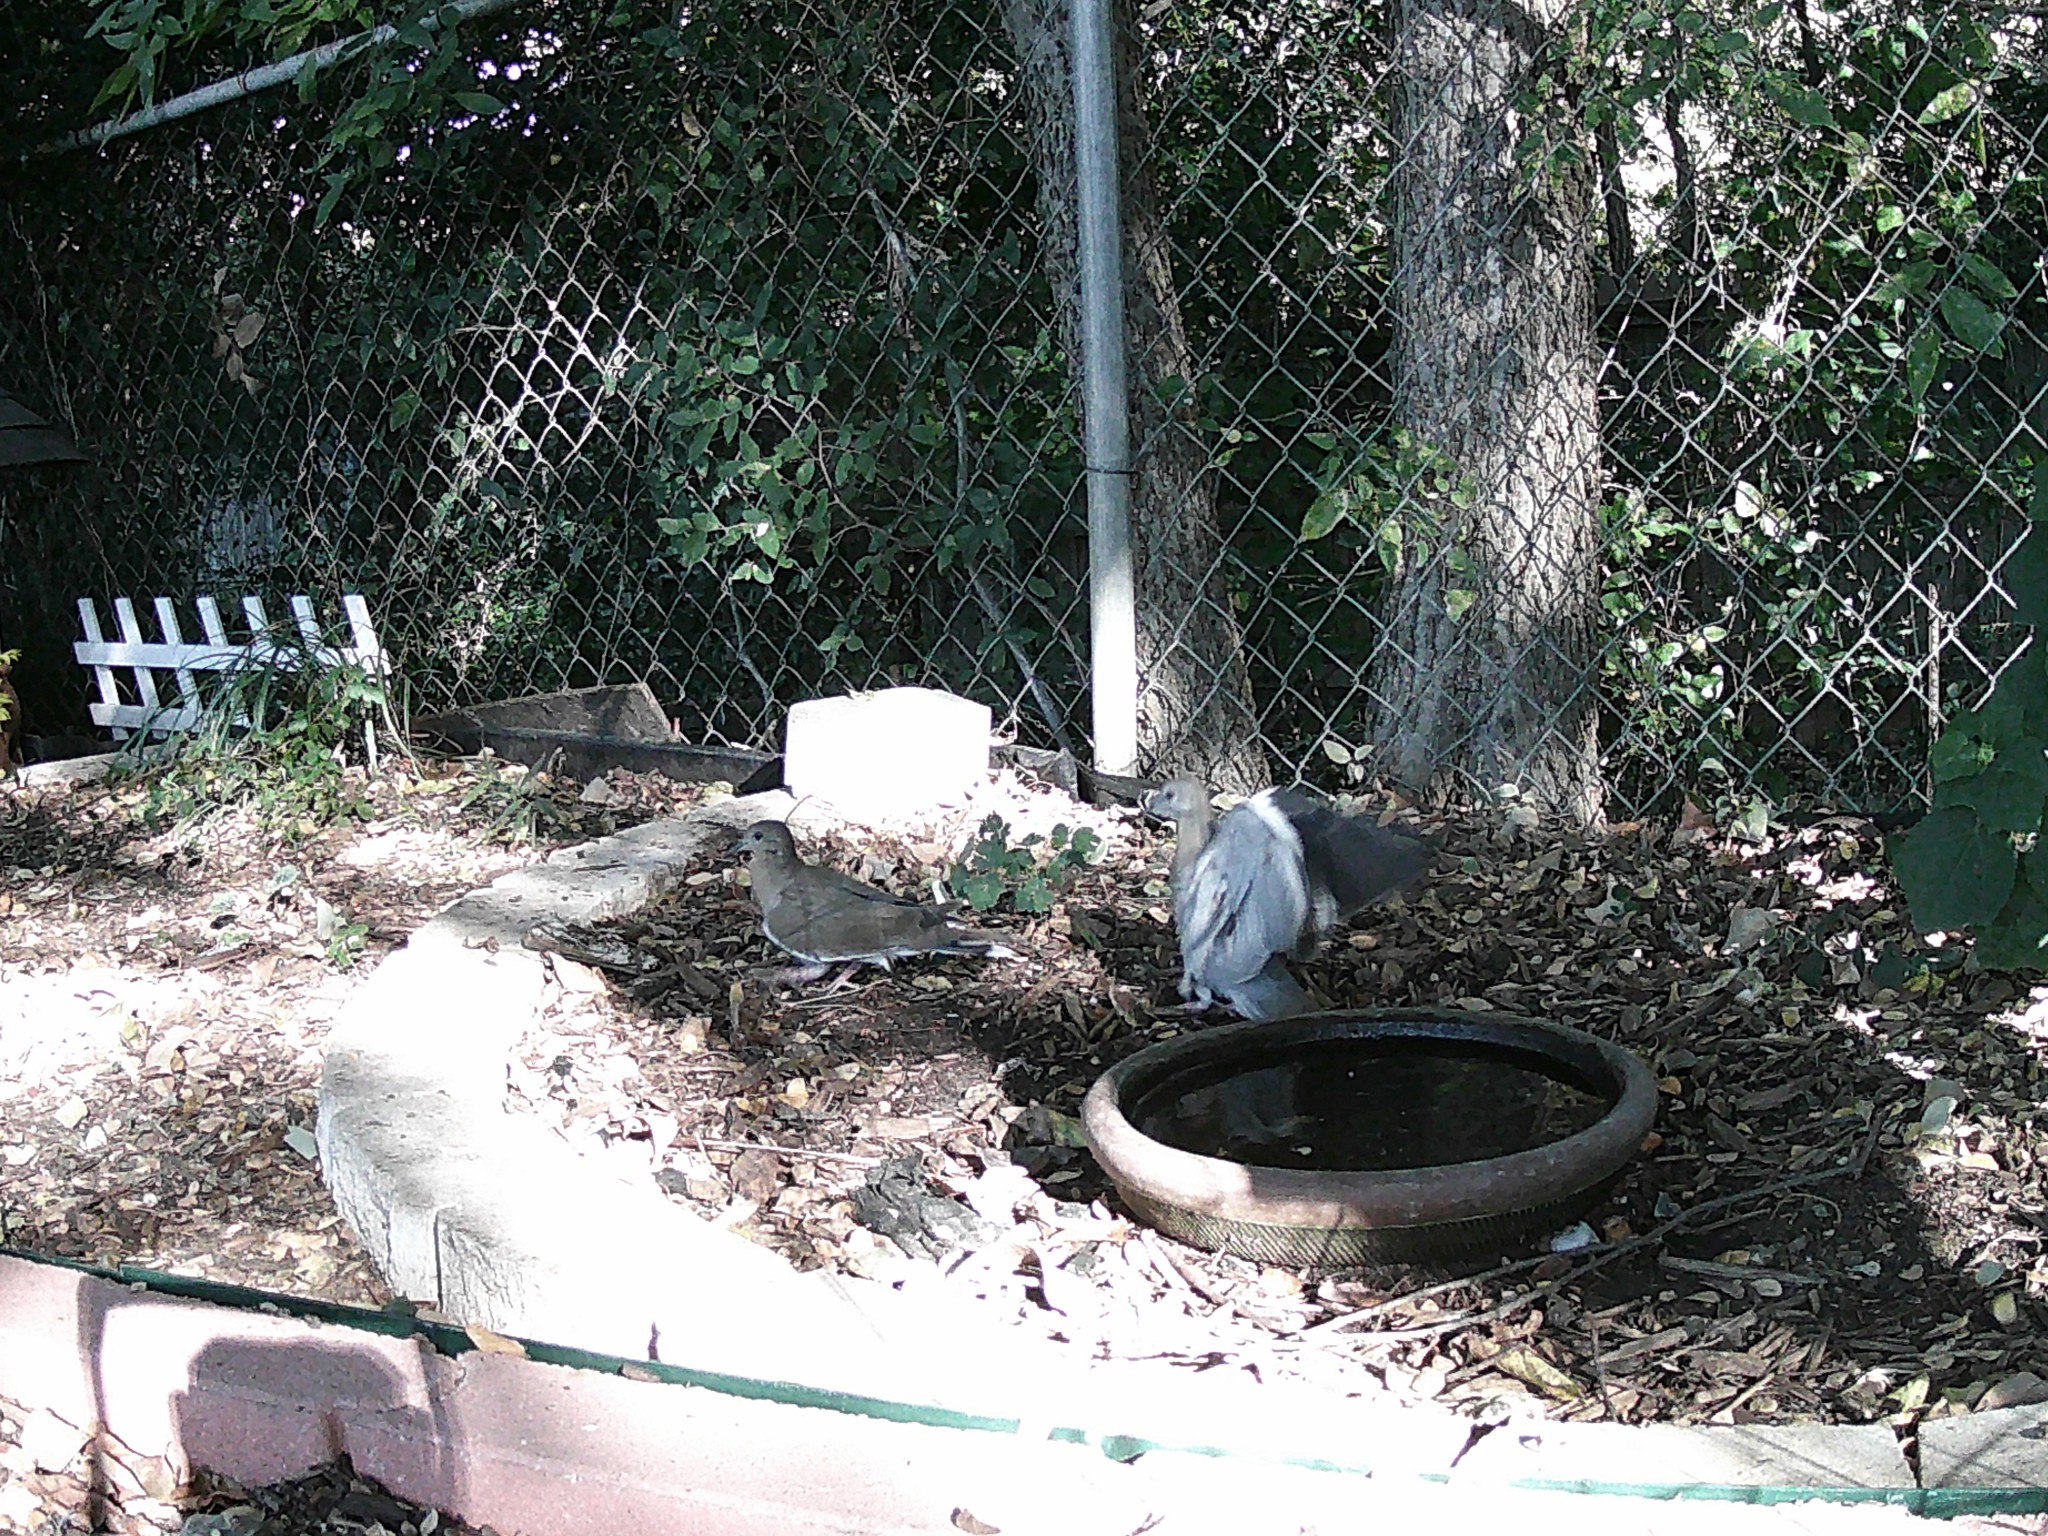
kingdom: Animalia
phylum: Chordata
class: Aves
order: Columbiformes
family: Columbidae
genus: Zenaida
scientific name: Zenaida asiatica
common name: White-winged dove
